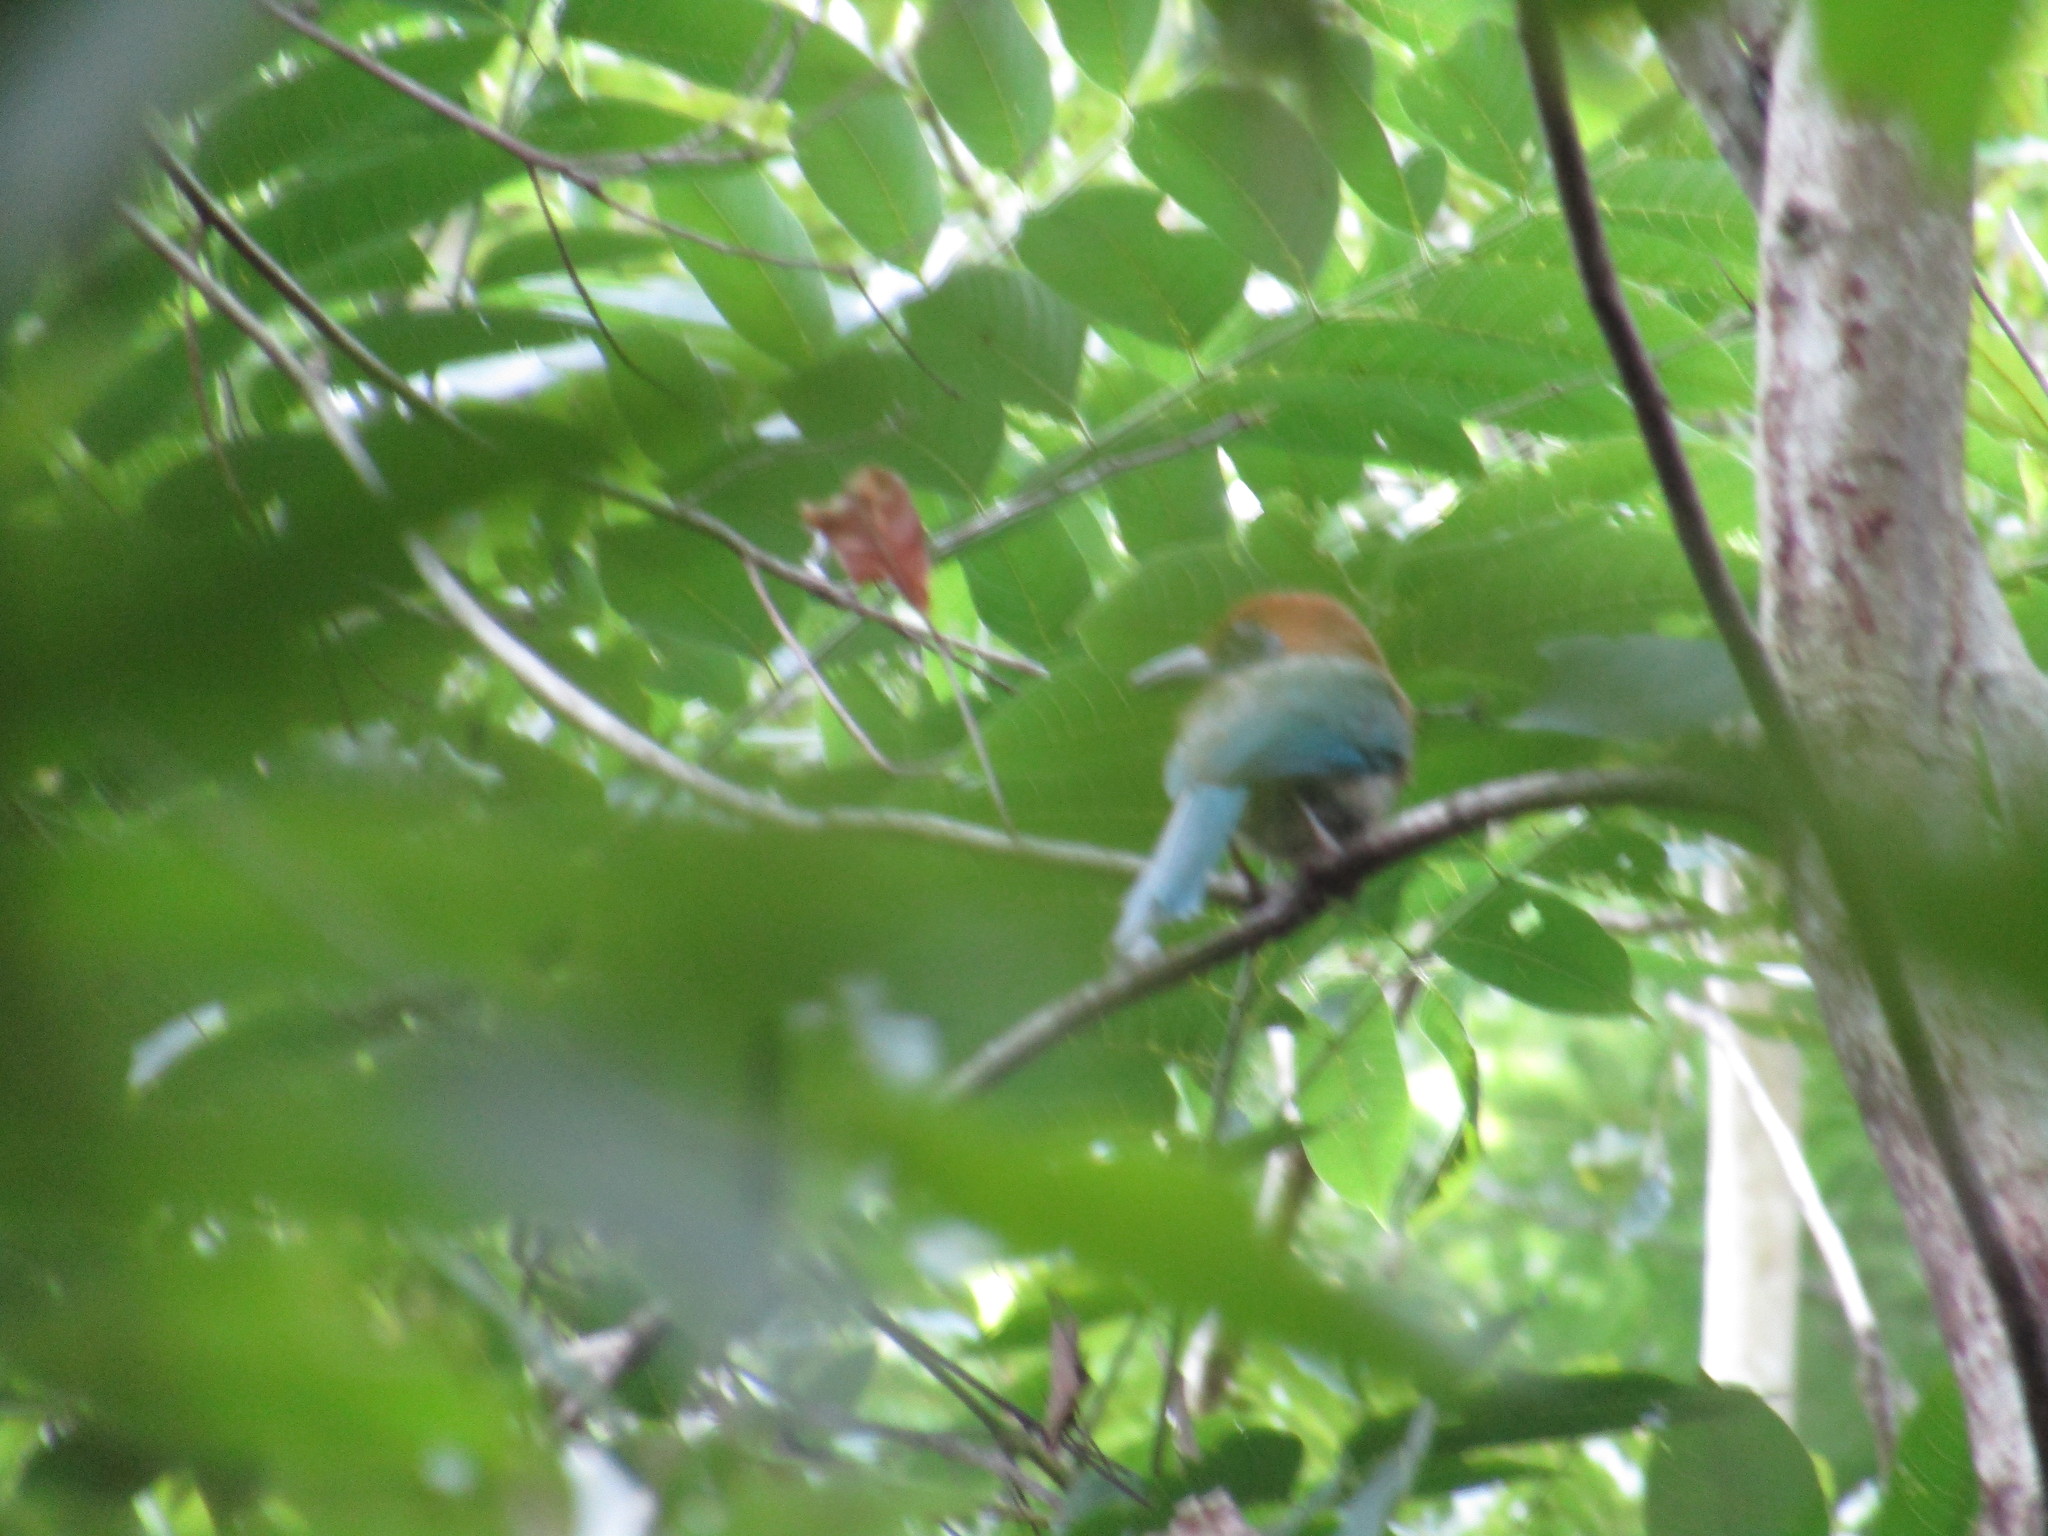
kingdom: Animalia
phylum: Chordata
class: Aves
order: Coraciiformes
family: Momotidae
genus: Momotus
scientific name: Momotus mexicanus
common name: Russet-crowned motmot
